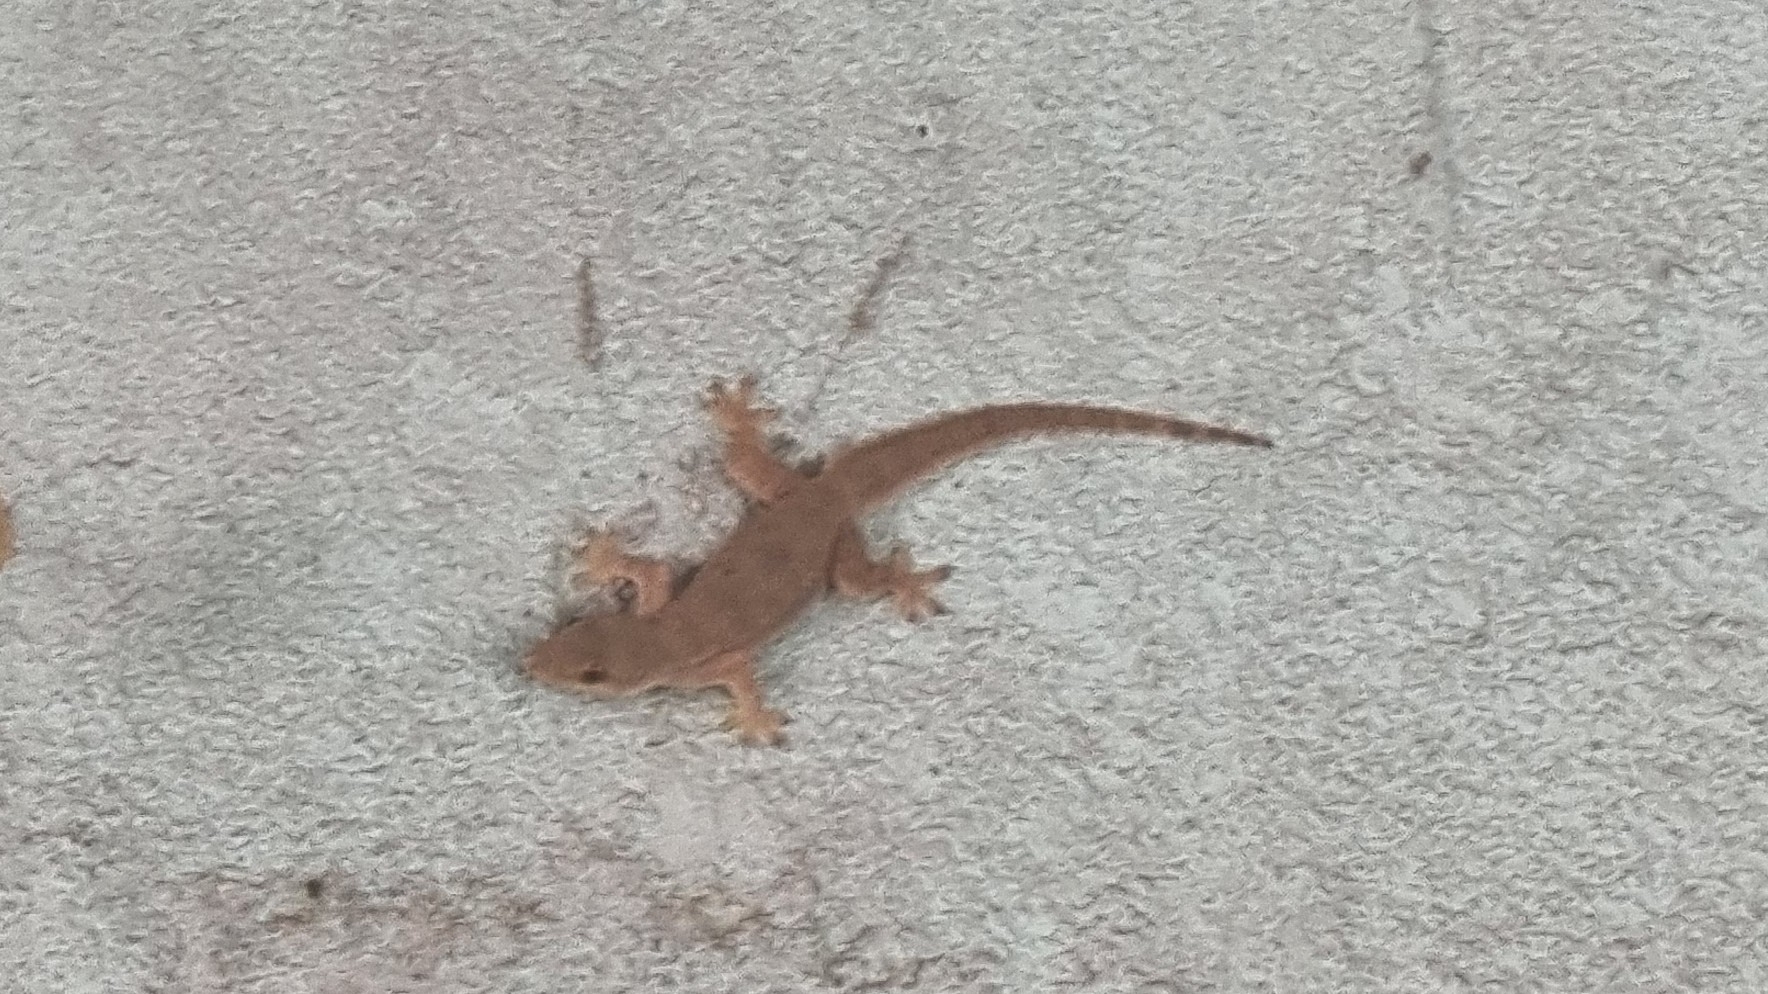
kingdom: Animalia
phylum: Chordata
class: Squamata
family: Gekkonidae
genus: Hemidactylus
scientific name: Hemidactylus platyurus
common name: Flat-tailed house gecko
